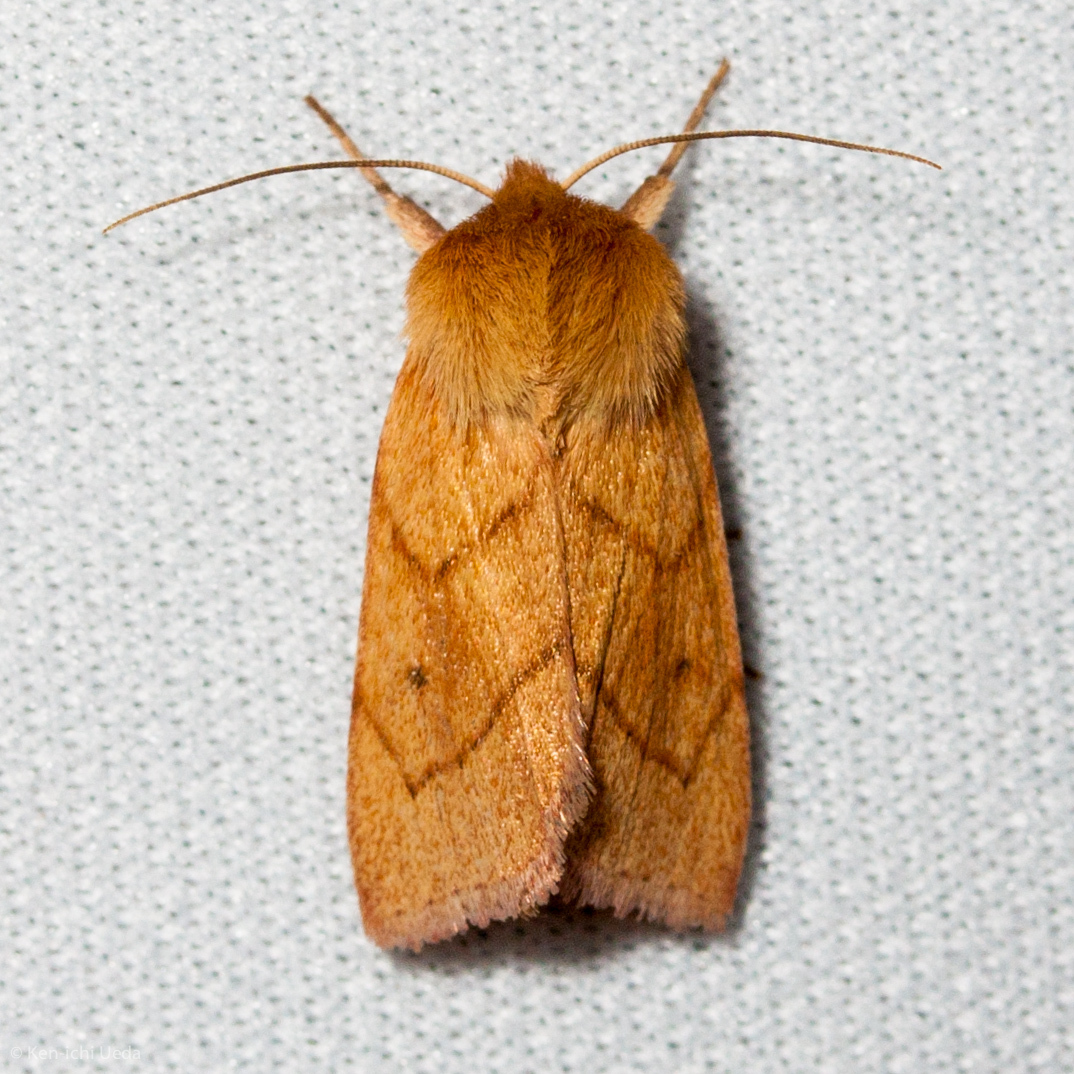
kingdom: Animalia
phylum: Arthropoda
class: Insecta
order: Lepidoptera
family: Noctuidae
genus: Zosteropoda
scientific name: Zosteropoda hirtipes
